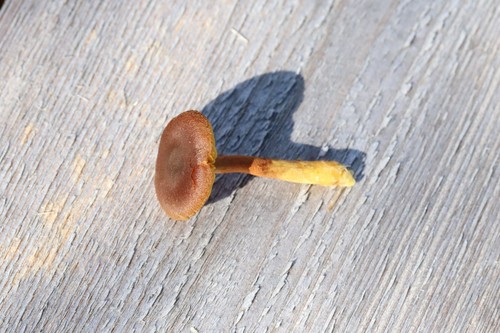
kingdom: Fungi
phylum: Basidiomycota
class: Agaricomycetes
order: Agaricales
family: Cortinariaceae
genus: Cortinarius
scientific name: Cortinarius chrysolitus
